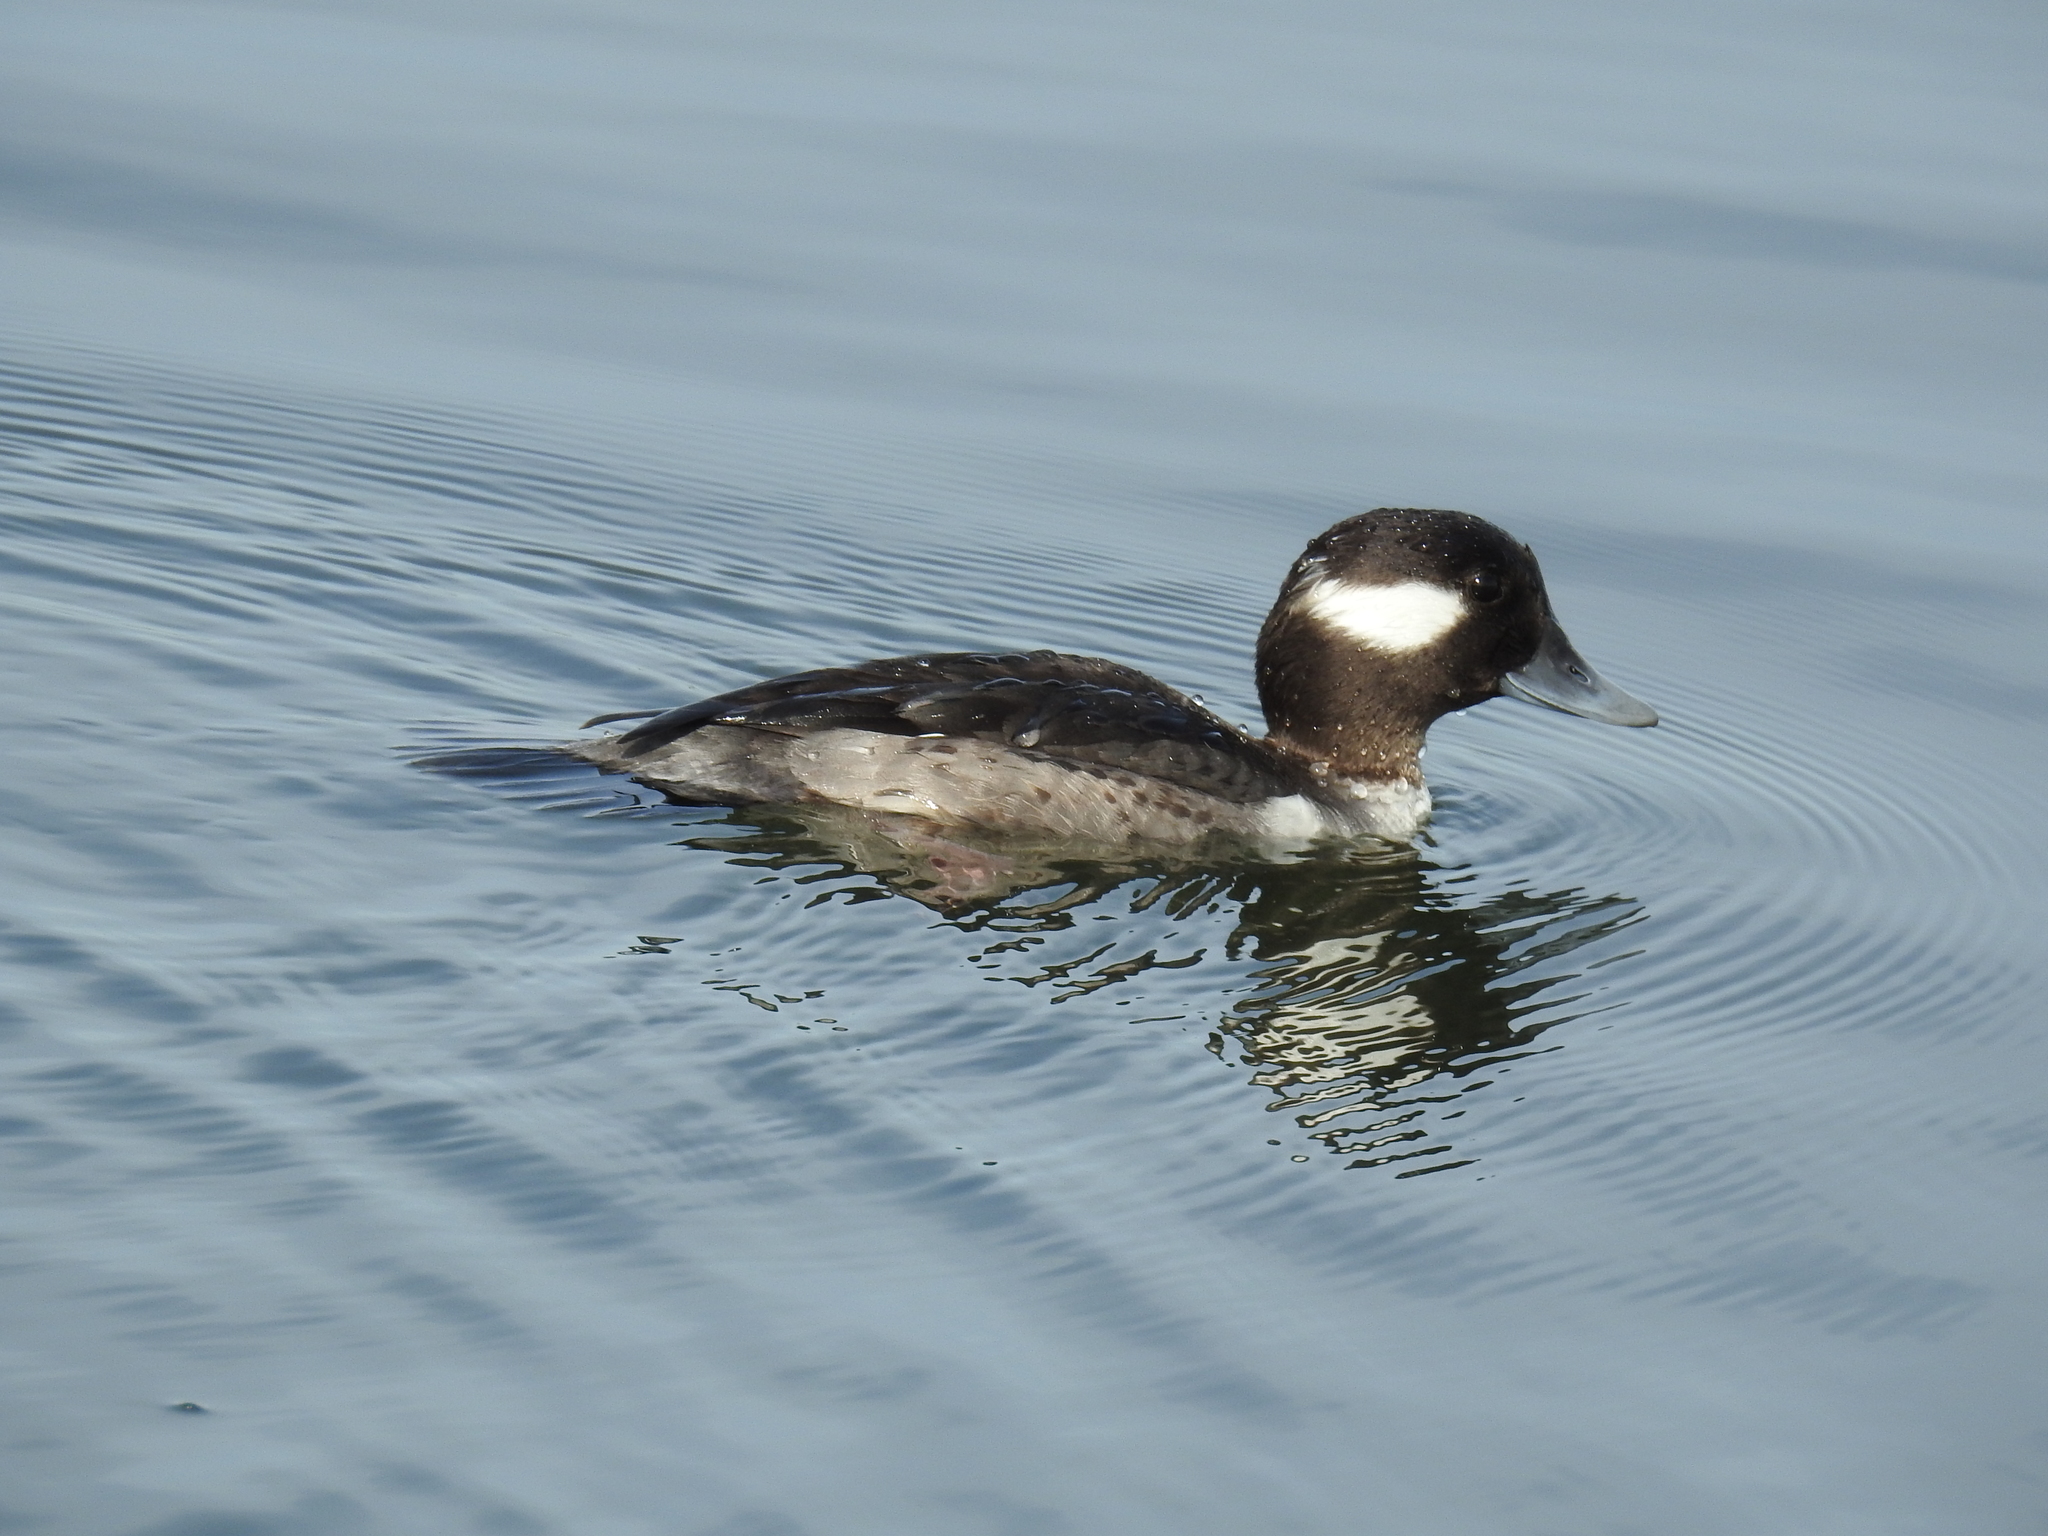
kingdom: Animalia
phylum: Chordata
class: Aves
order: Anseriformes
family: Anatidae
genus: Bucephala
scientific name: Bucephala albeola
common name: Bufflehead
